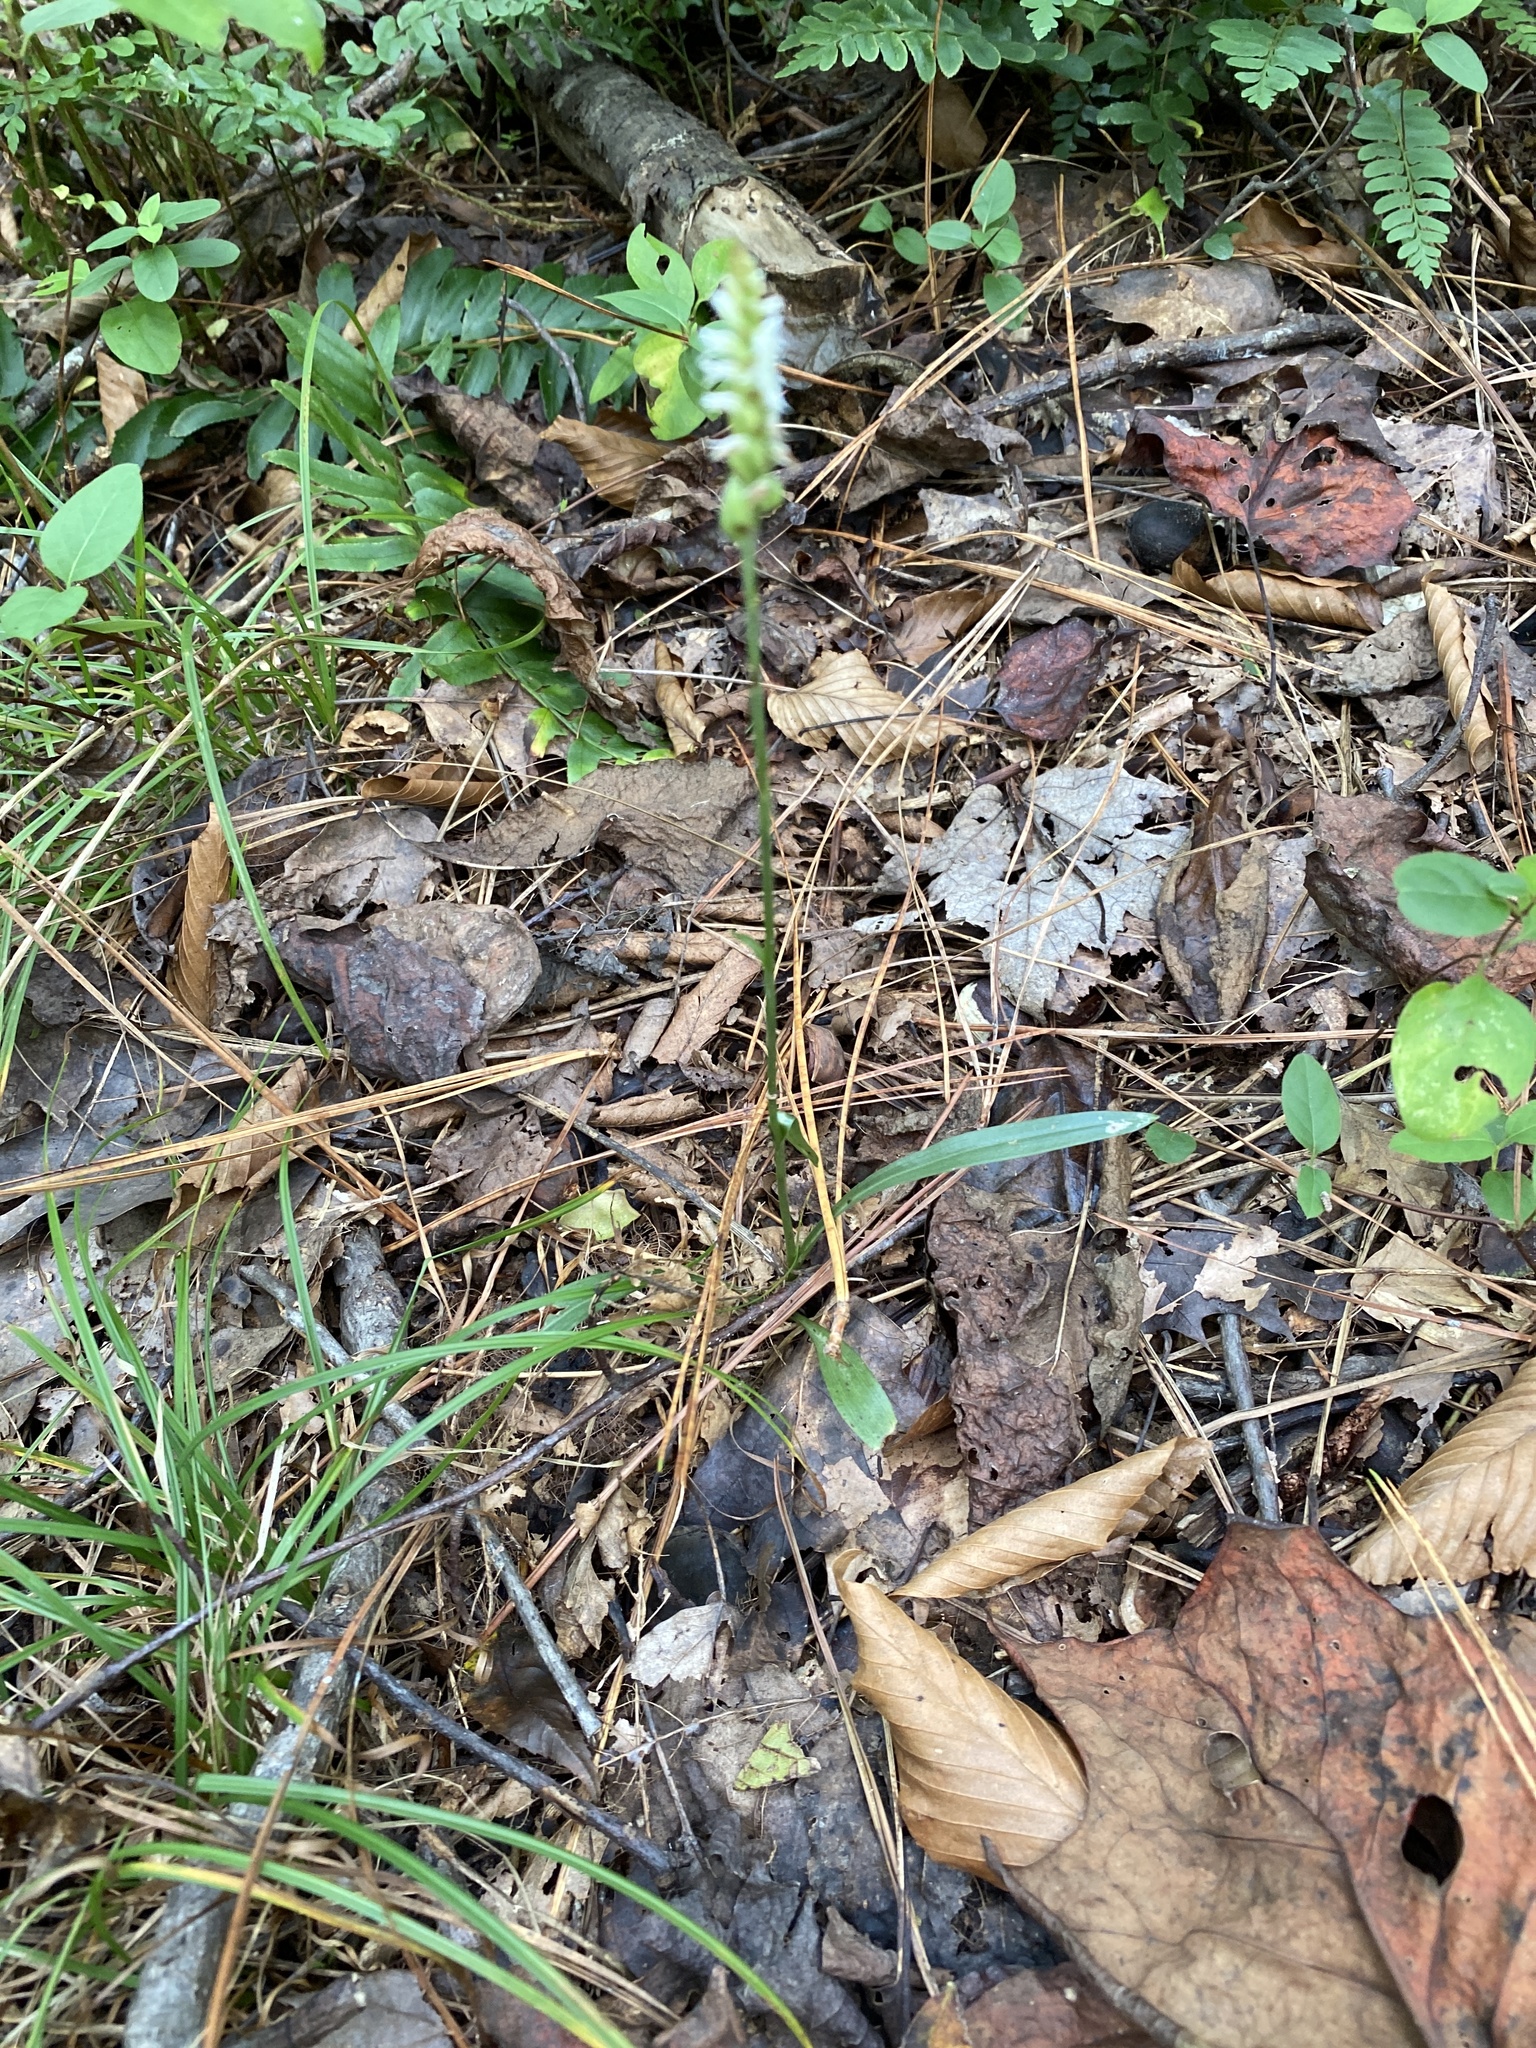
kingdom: Plantae
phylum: Tracheophyta
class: Liliopsida
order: Asparagales
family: Orchidaceae
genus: Spiranthes
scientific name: Spiranthes ovalis
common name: October ladies'-tresses
